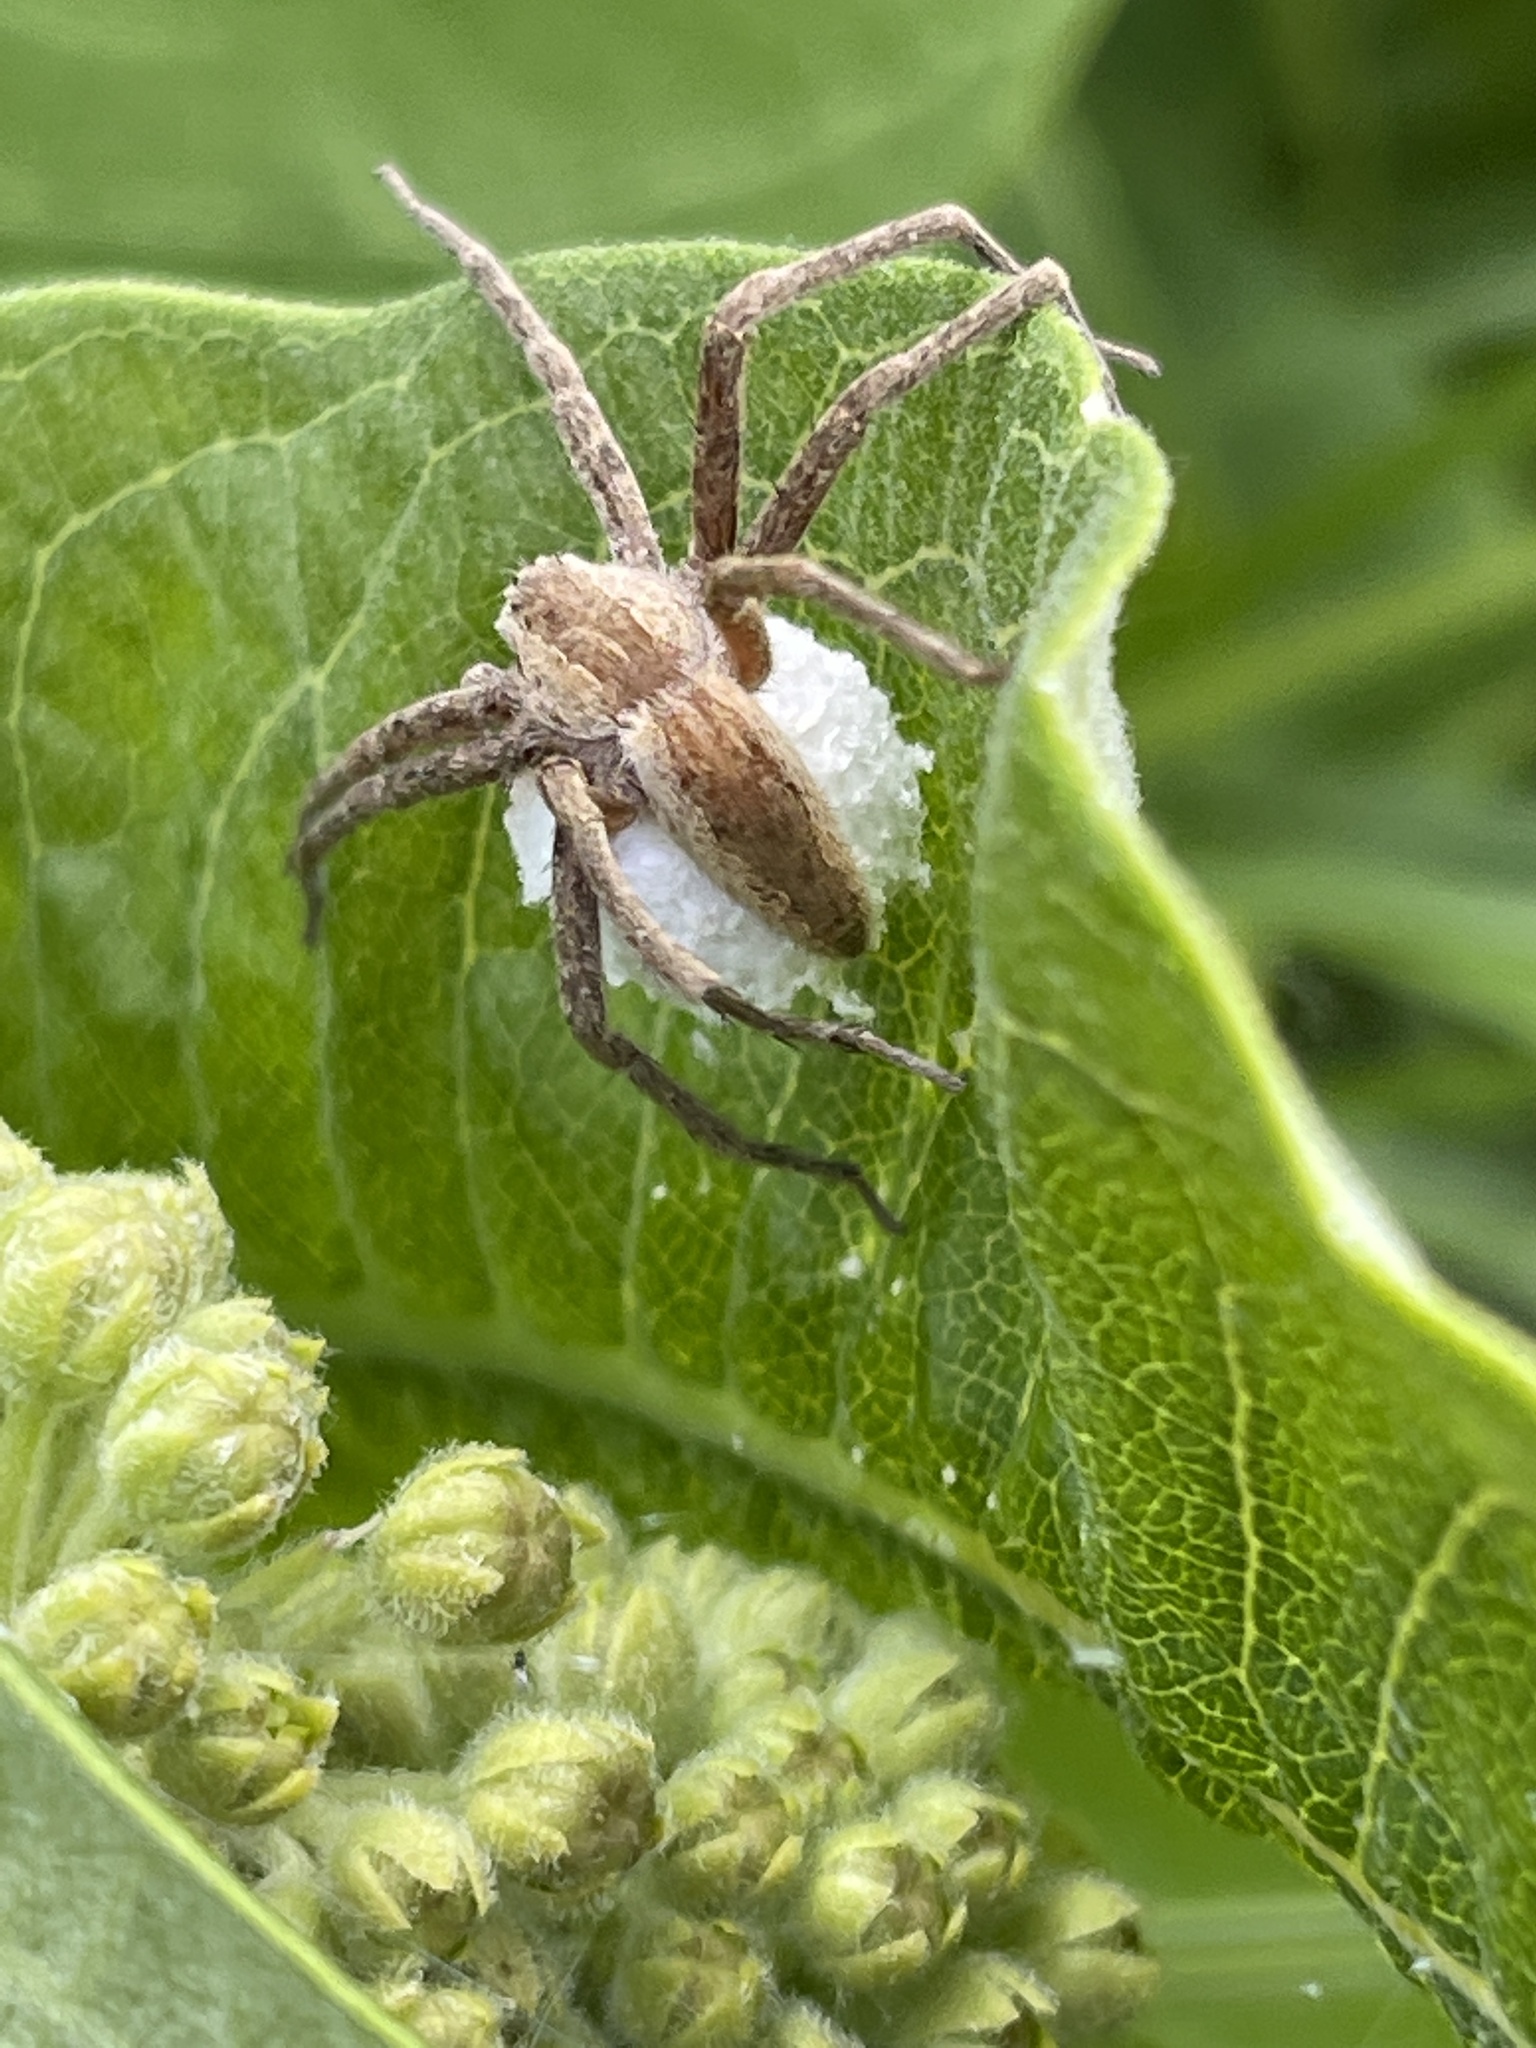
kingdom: Animalia
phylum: Arthropoda
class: Arachnida
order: Araneae
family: Pisauridae
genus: Pisaurina
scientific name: Pisaurina mira
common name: American nursery web spider
